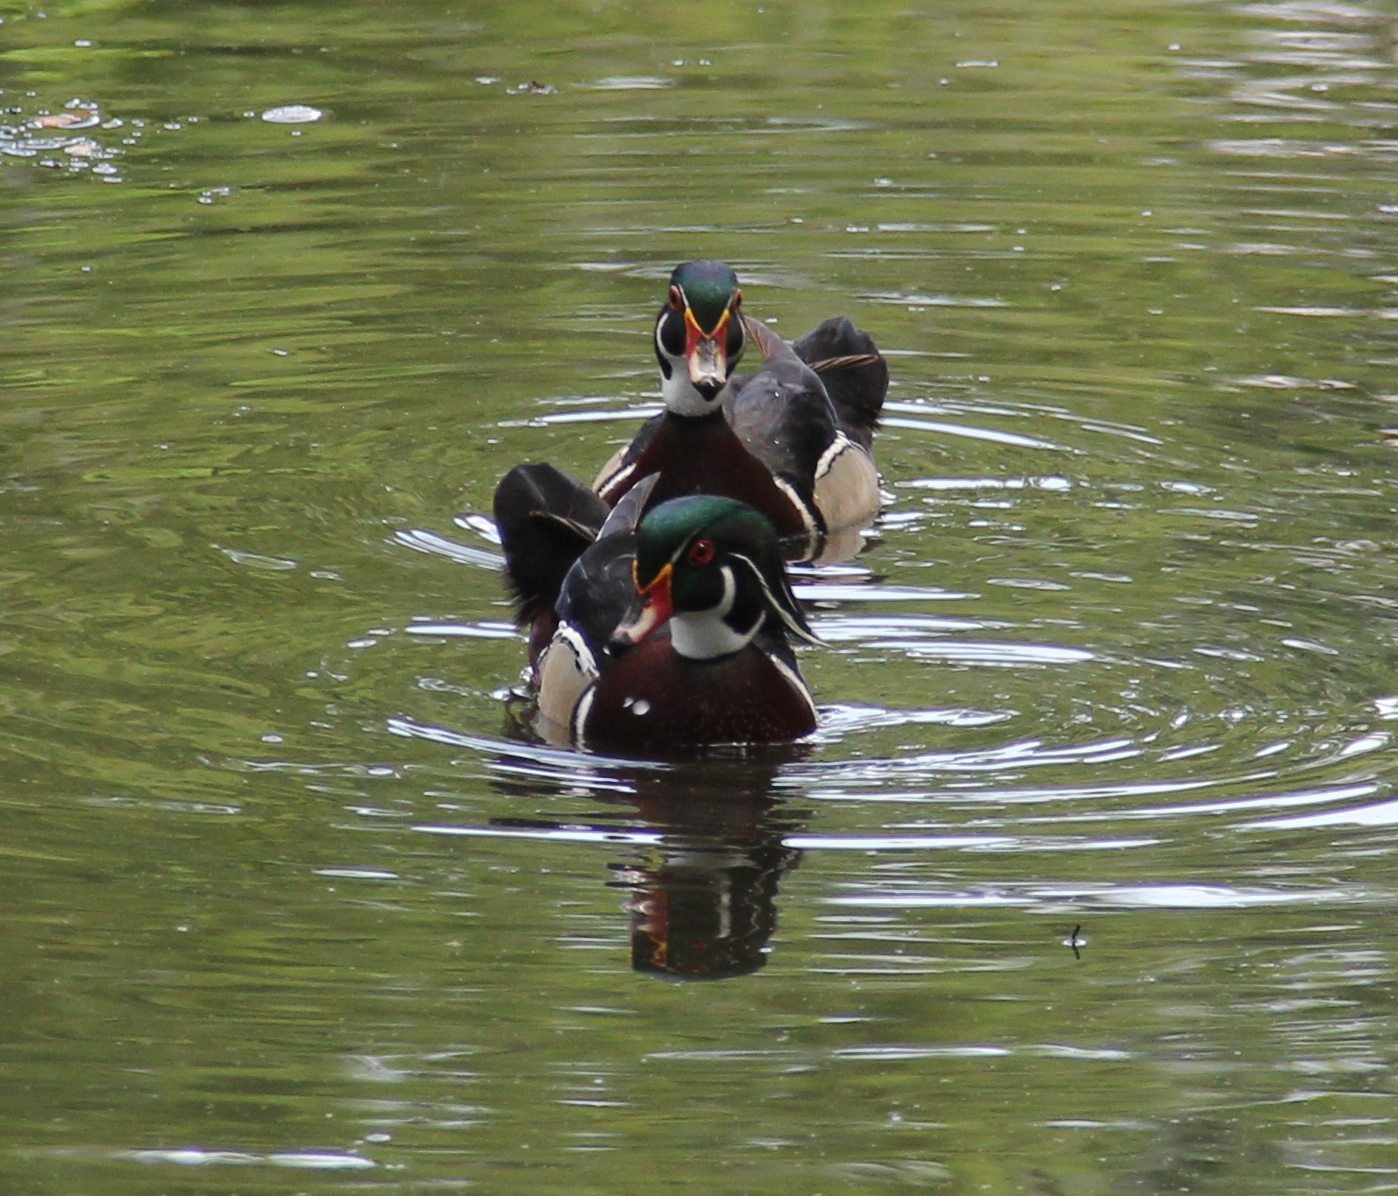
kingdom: Animalia
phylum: Chordata
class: Aves
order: Anseriformes
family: Anatidae
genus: Aix
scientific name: Aix sponsa
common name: Wood duck
